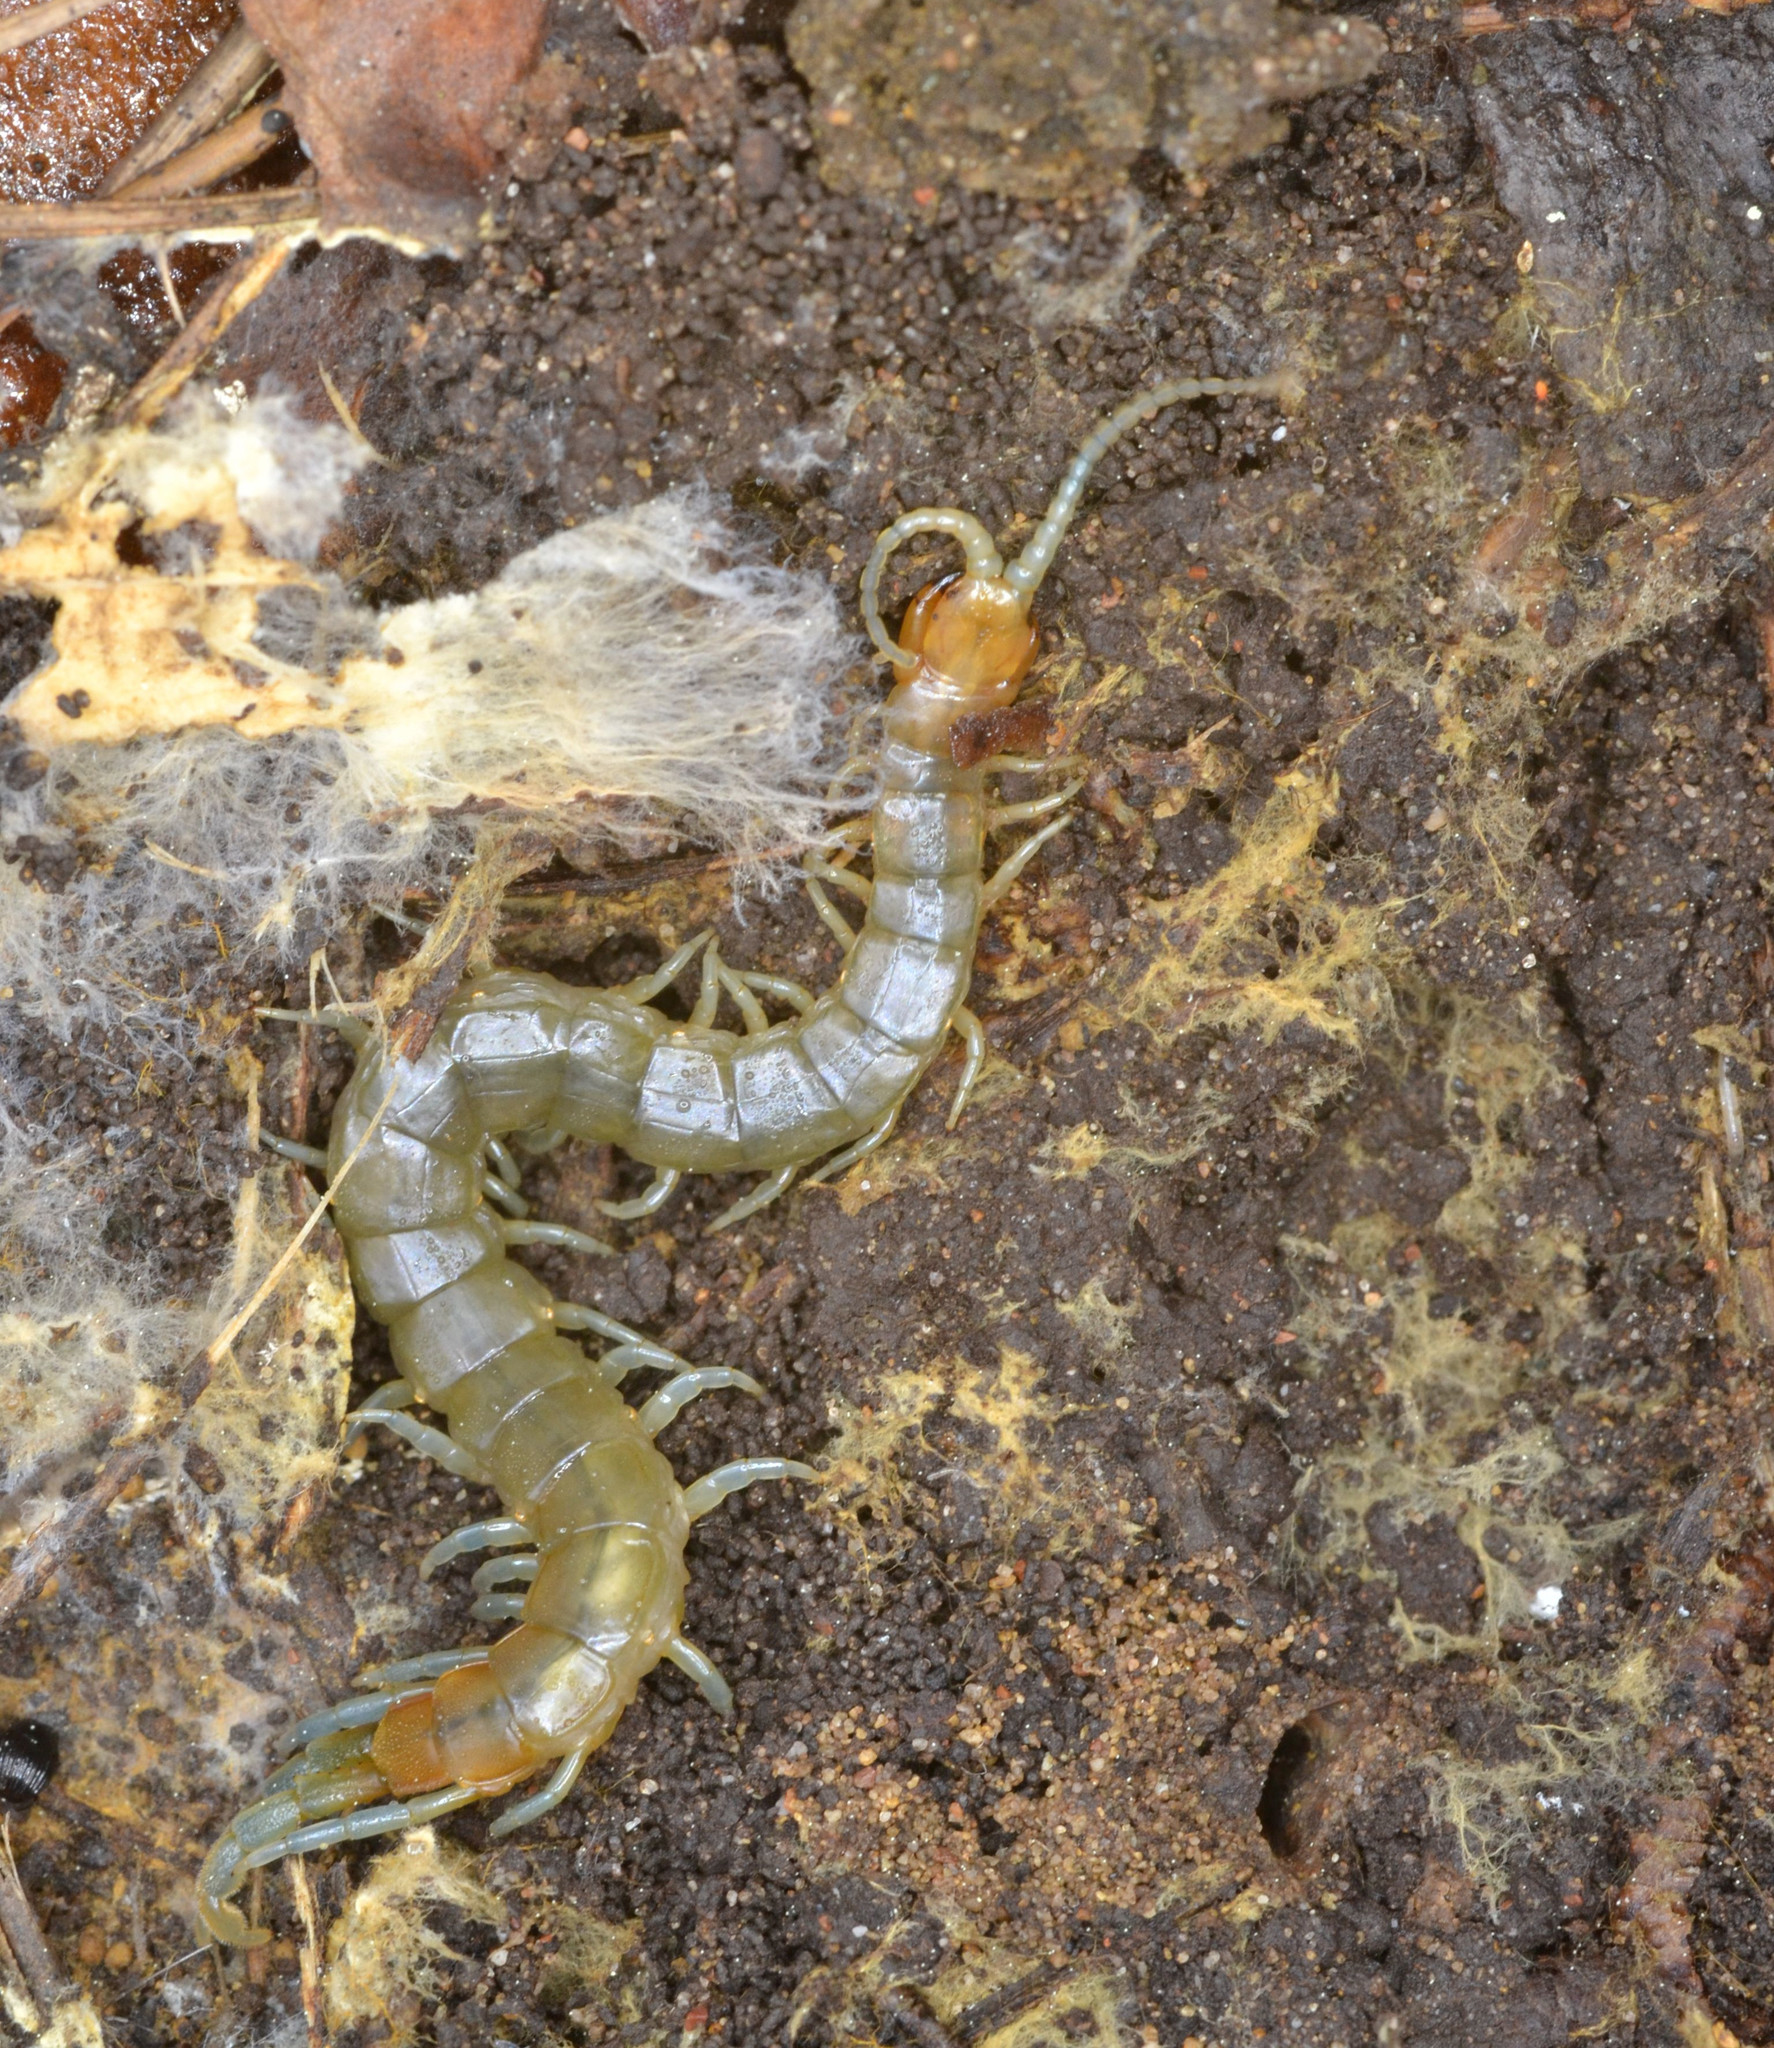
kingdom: Animalia
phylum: Arthropoda
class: Chilopoda
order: Scolopendromorpha
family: Scolopendridae
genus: Scolopendra
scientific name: Scolopendra clavipes
